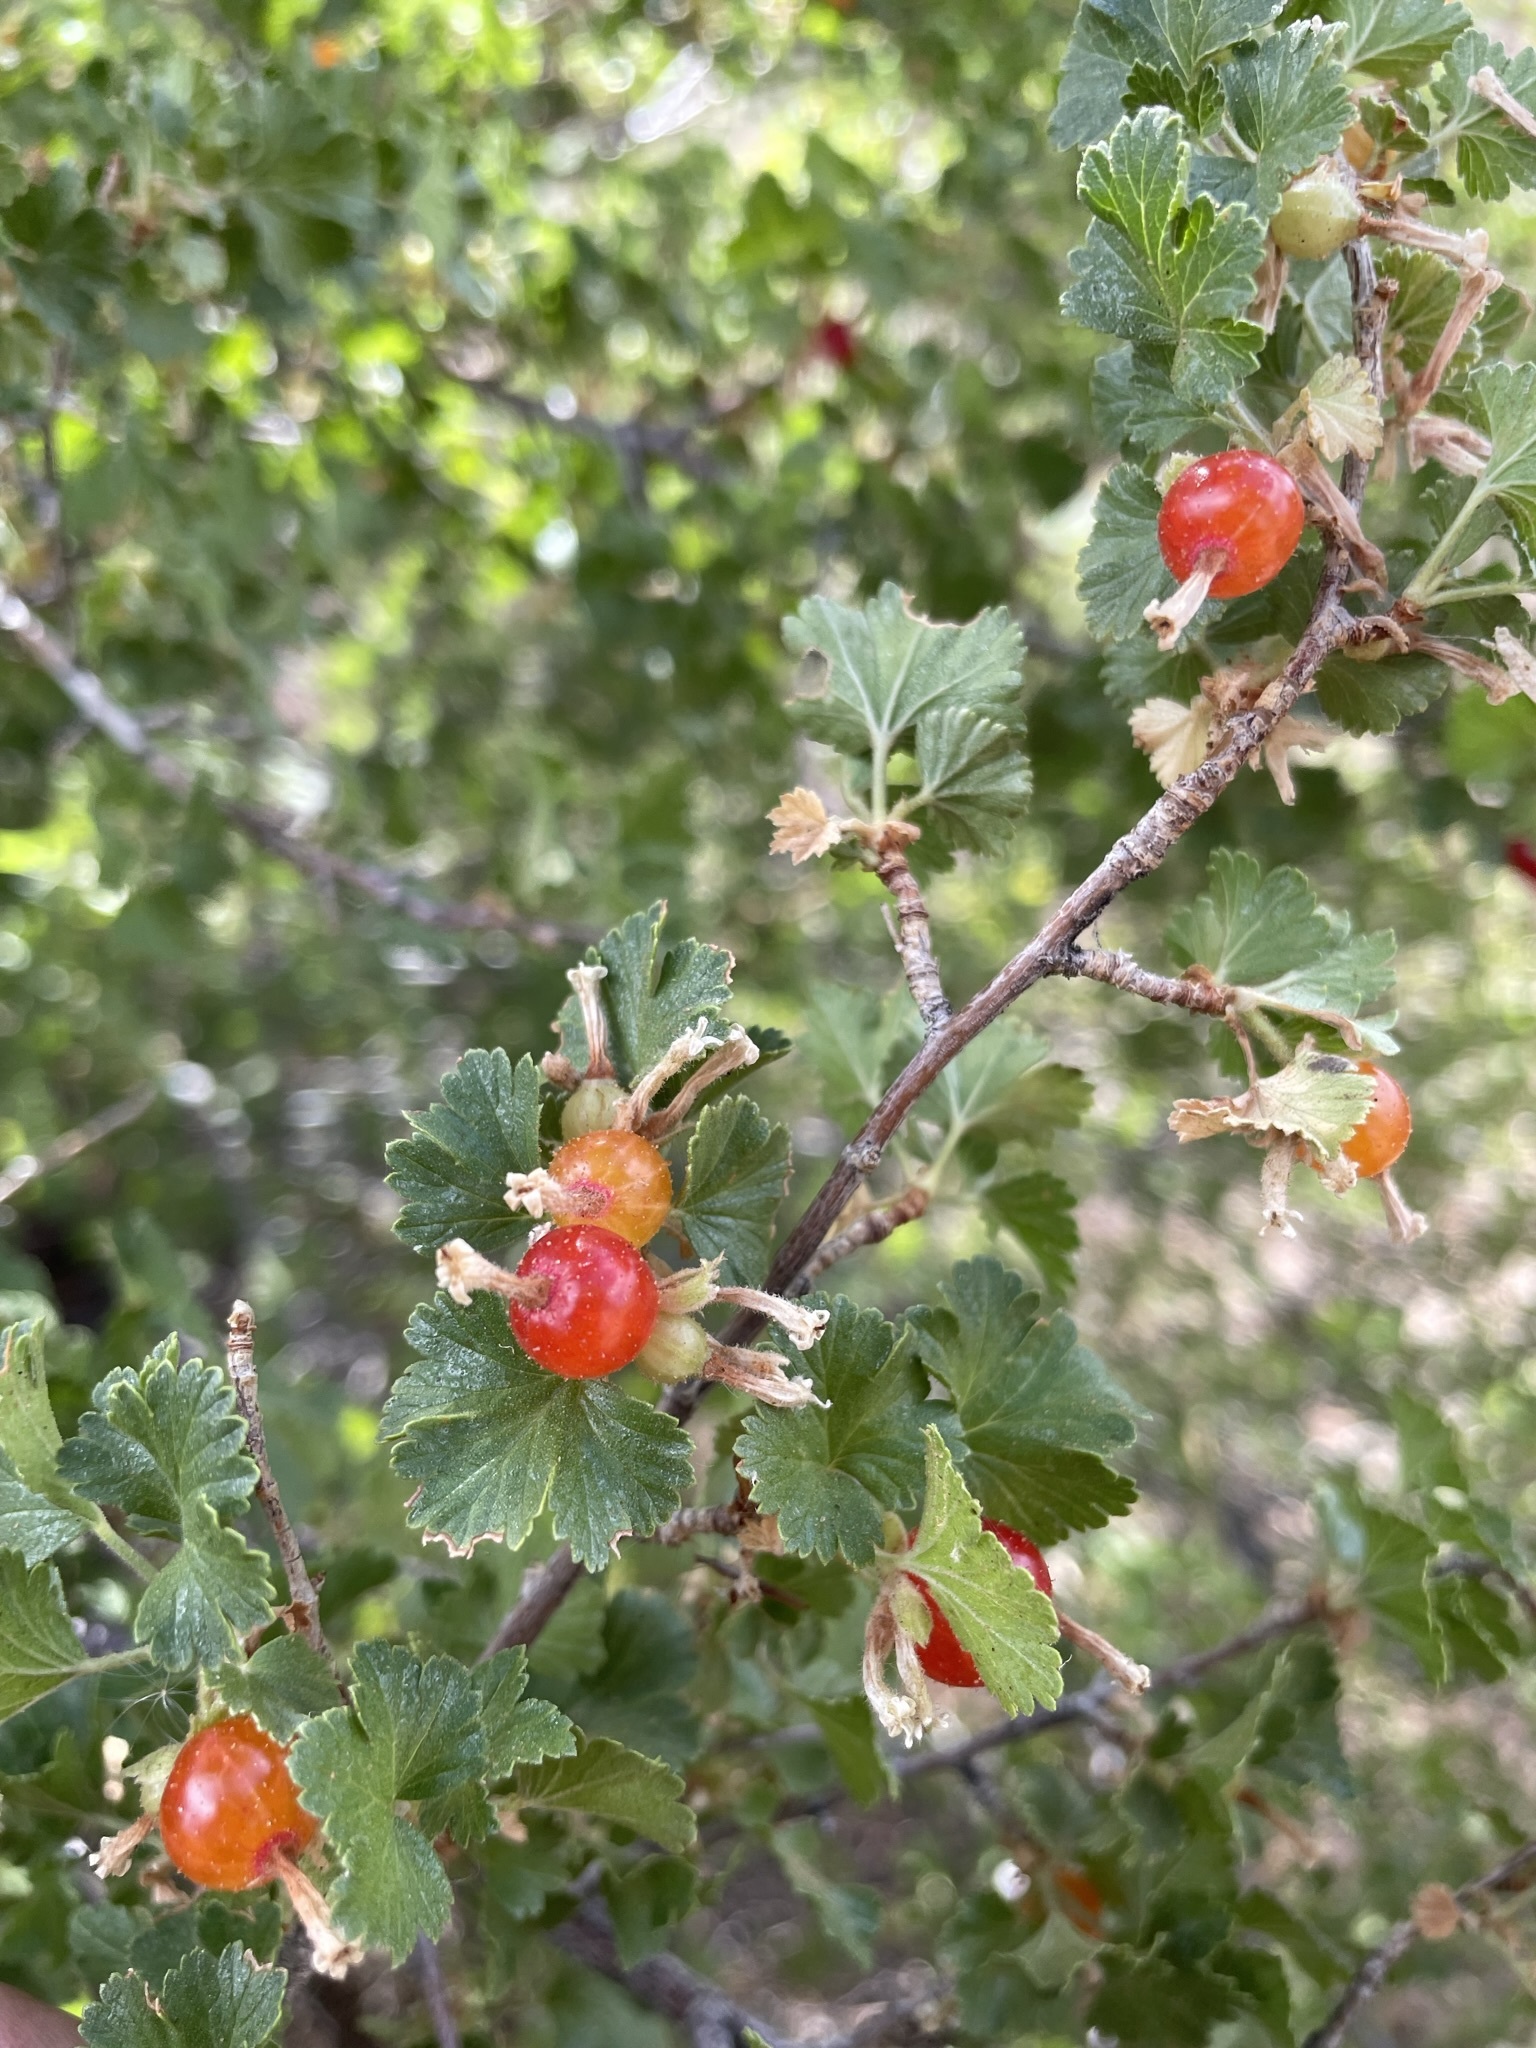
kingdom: Plantae
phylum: Tracheophyta
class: Magnoliopsida
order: Saxifragales
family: Grossulariaceae
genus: Ribes
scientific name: Ribes cereum
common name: Wax currant
